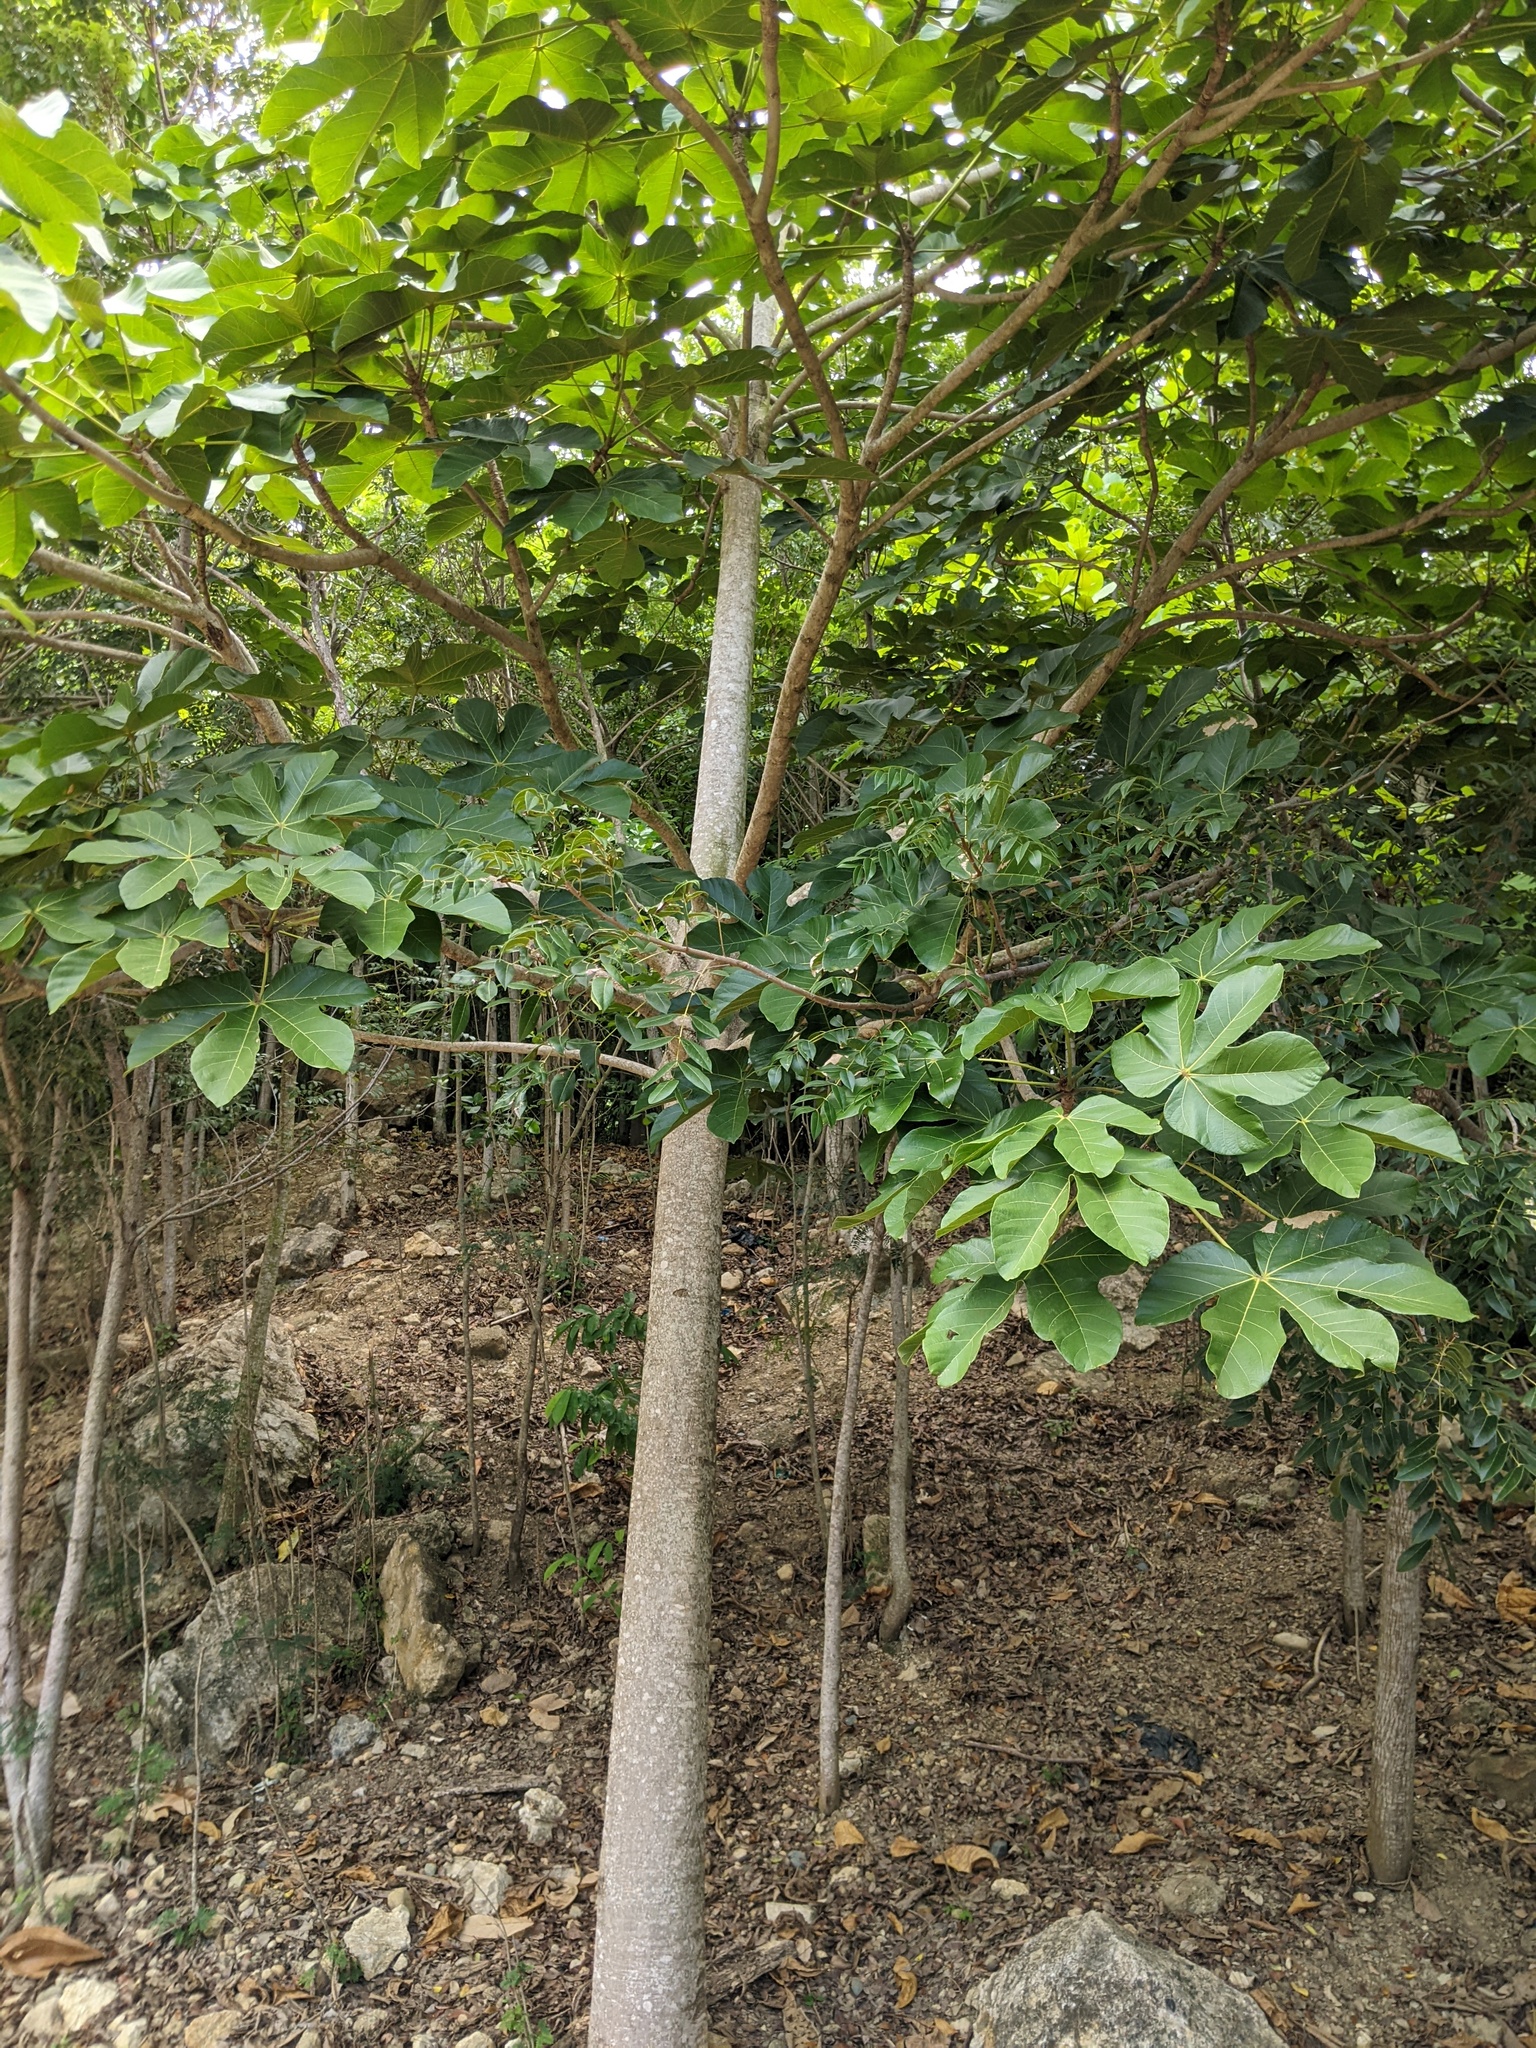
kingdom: Plantae
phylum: Tracheophyta
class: Magnoliopsida
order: Malvales
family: Malvaceae
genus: Sterculia
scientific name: Sterculia apetala
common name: Panama tree
